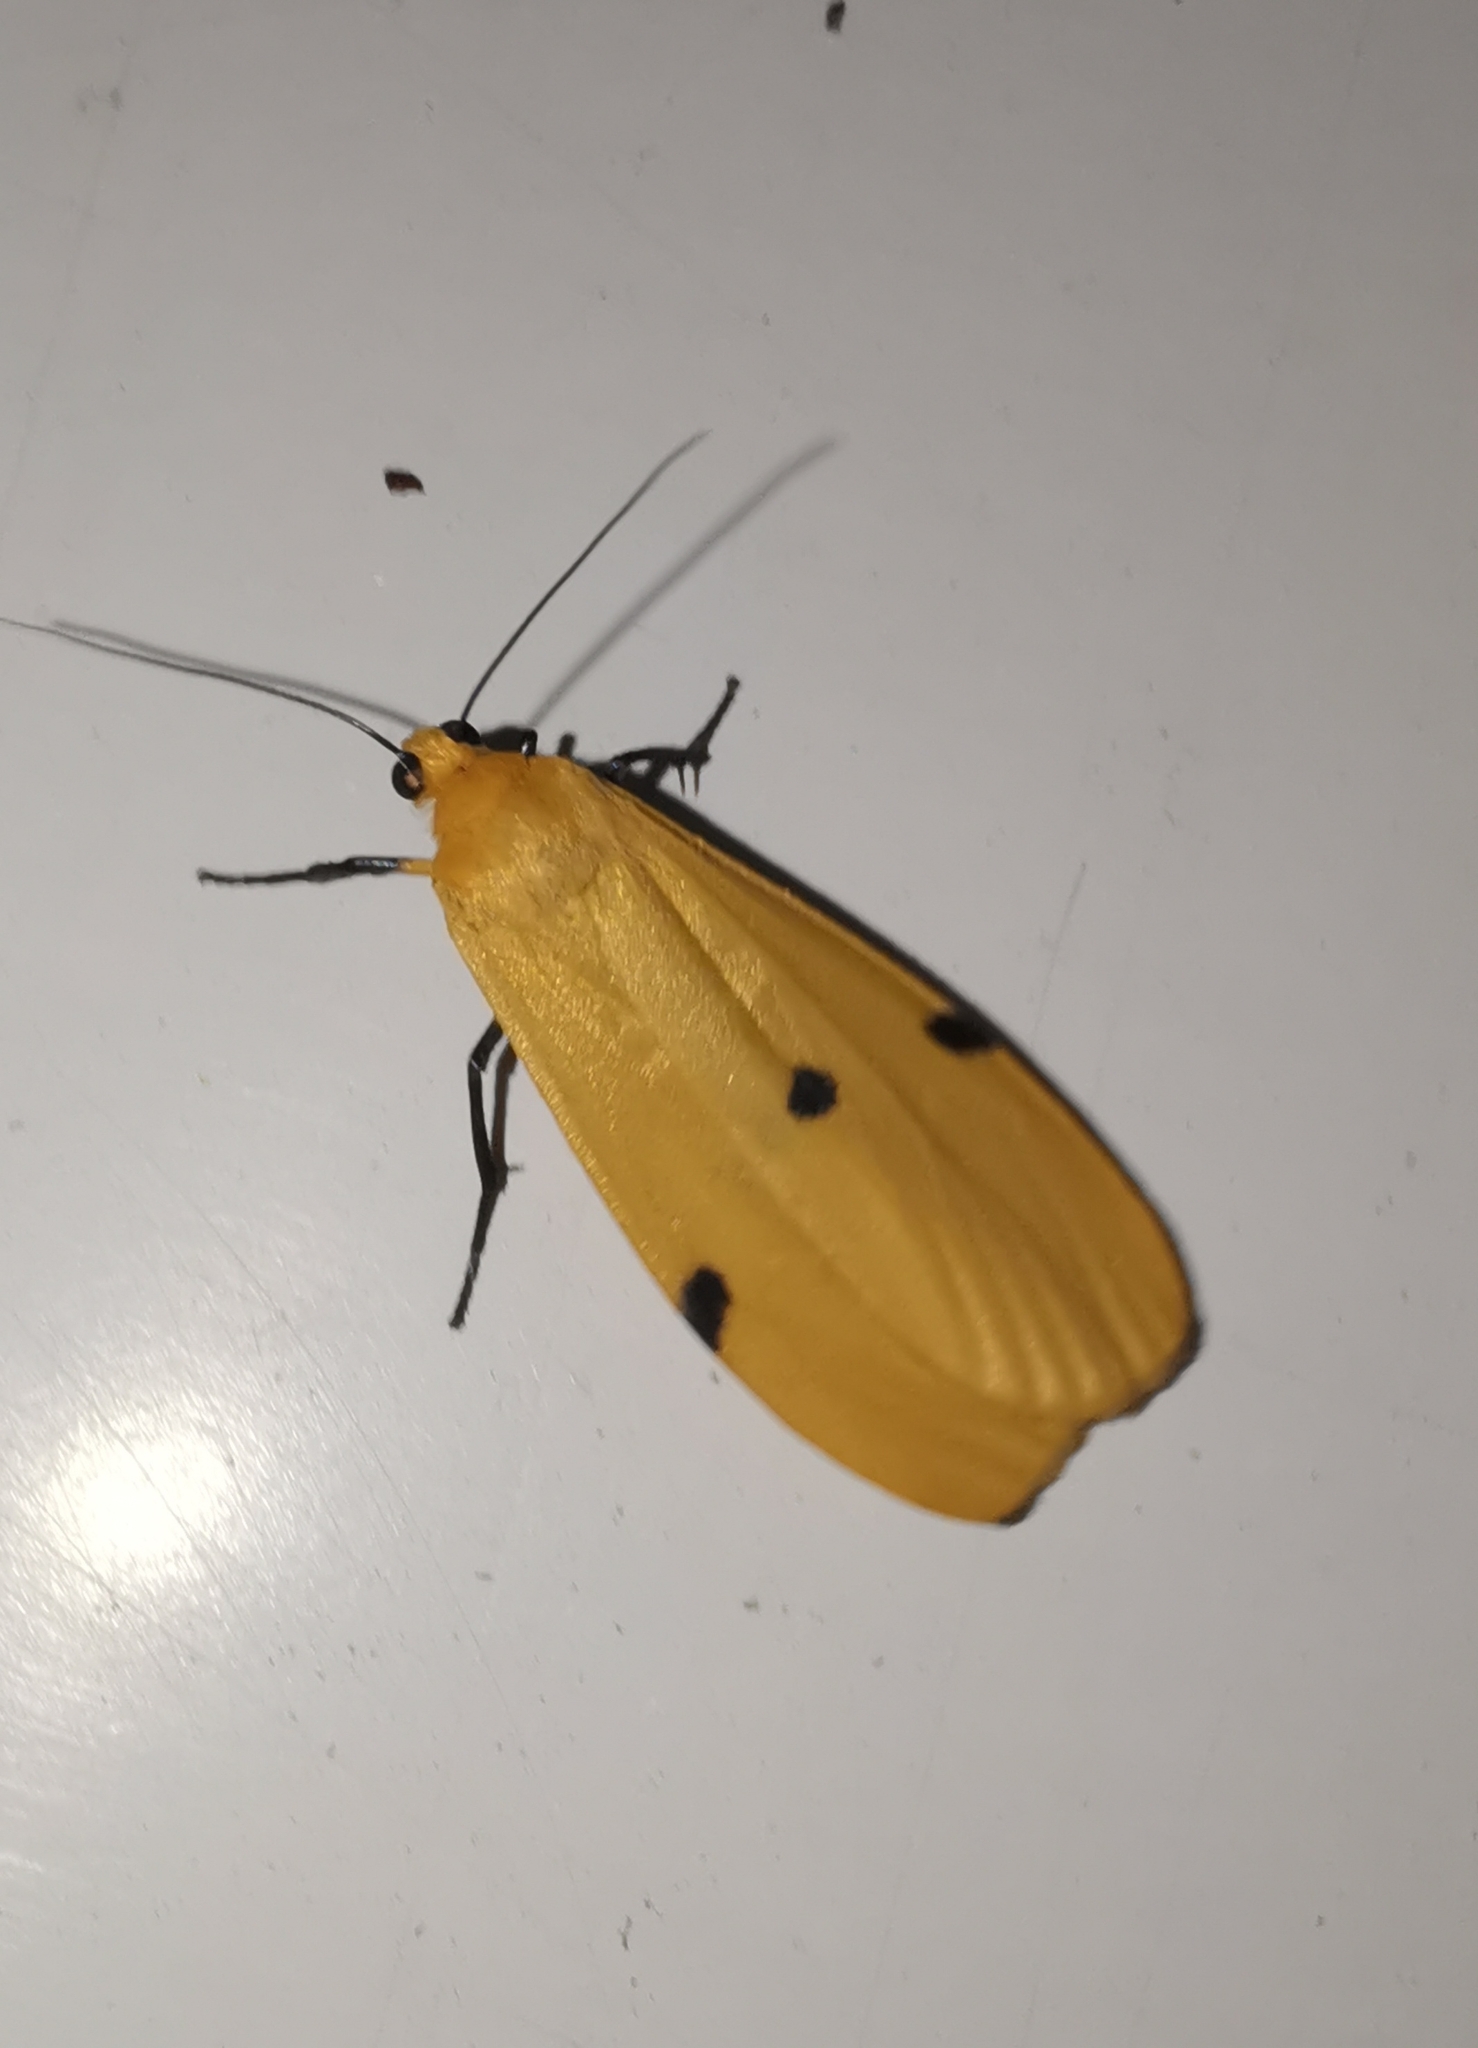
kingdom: Animalia
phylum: Arthropoda
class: Insecta
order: Lepidoptera
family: Erebidae
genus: Lithosia
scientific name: Lithosia quadra
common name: Four-spotted footman
